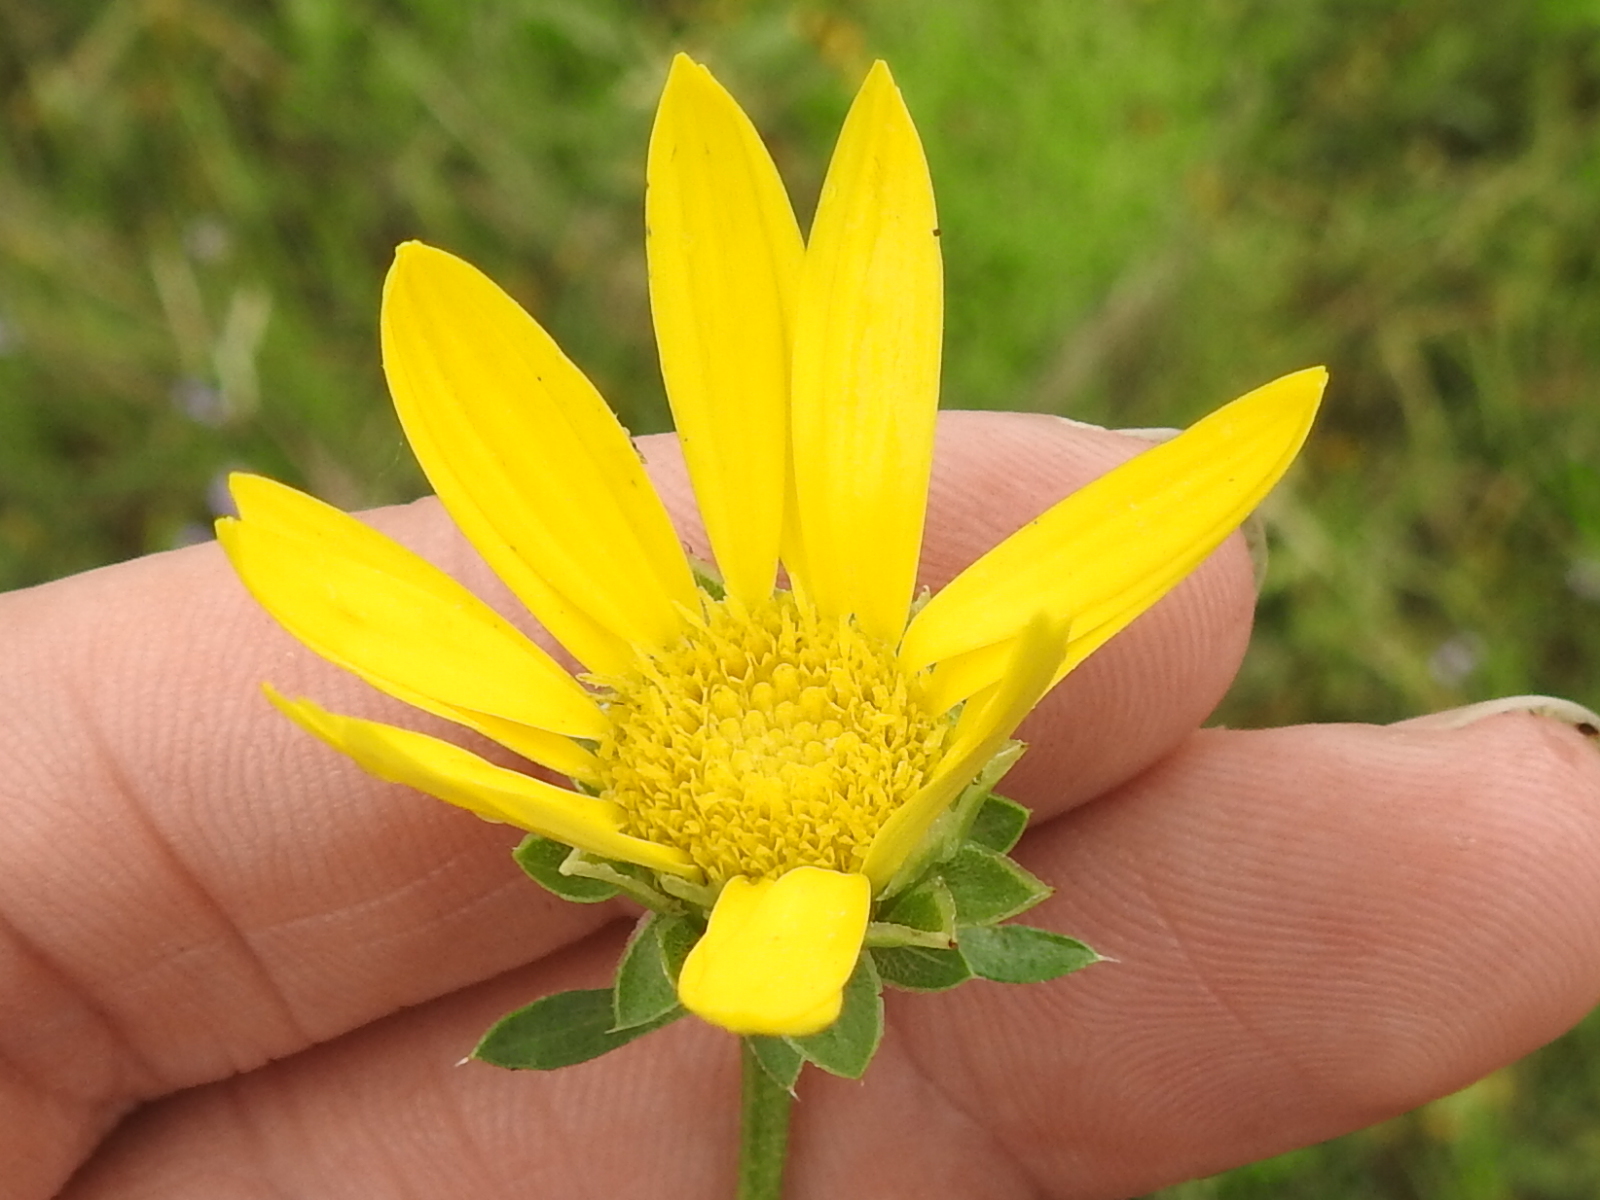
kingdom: Plantae
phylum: Tracheophyta
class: Magnoliopsida
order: Asterales
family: Asteraceae
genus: Xanthisma
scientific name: Xanthisma texanum
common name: Texas sleepy daisy
